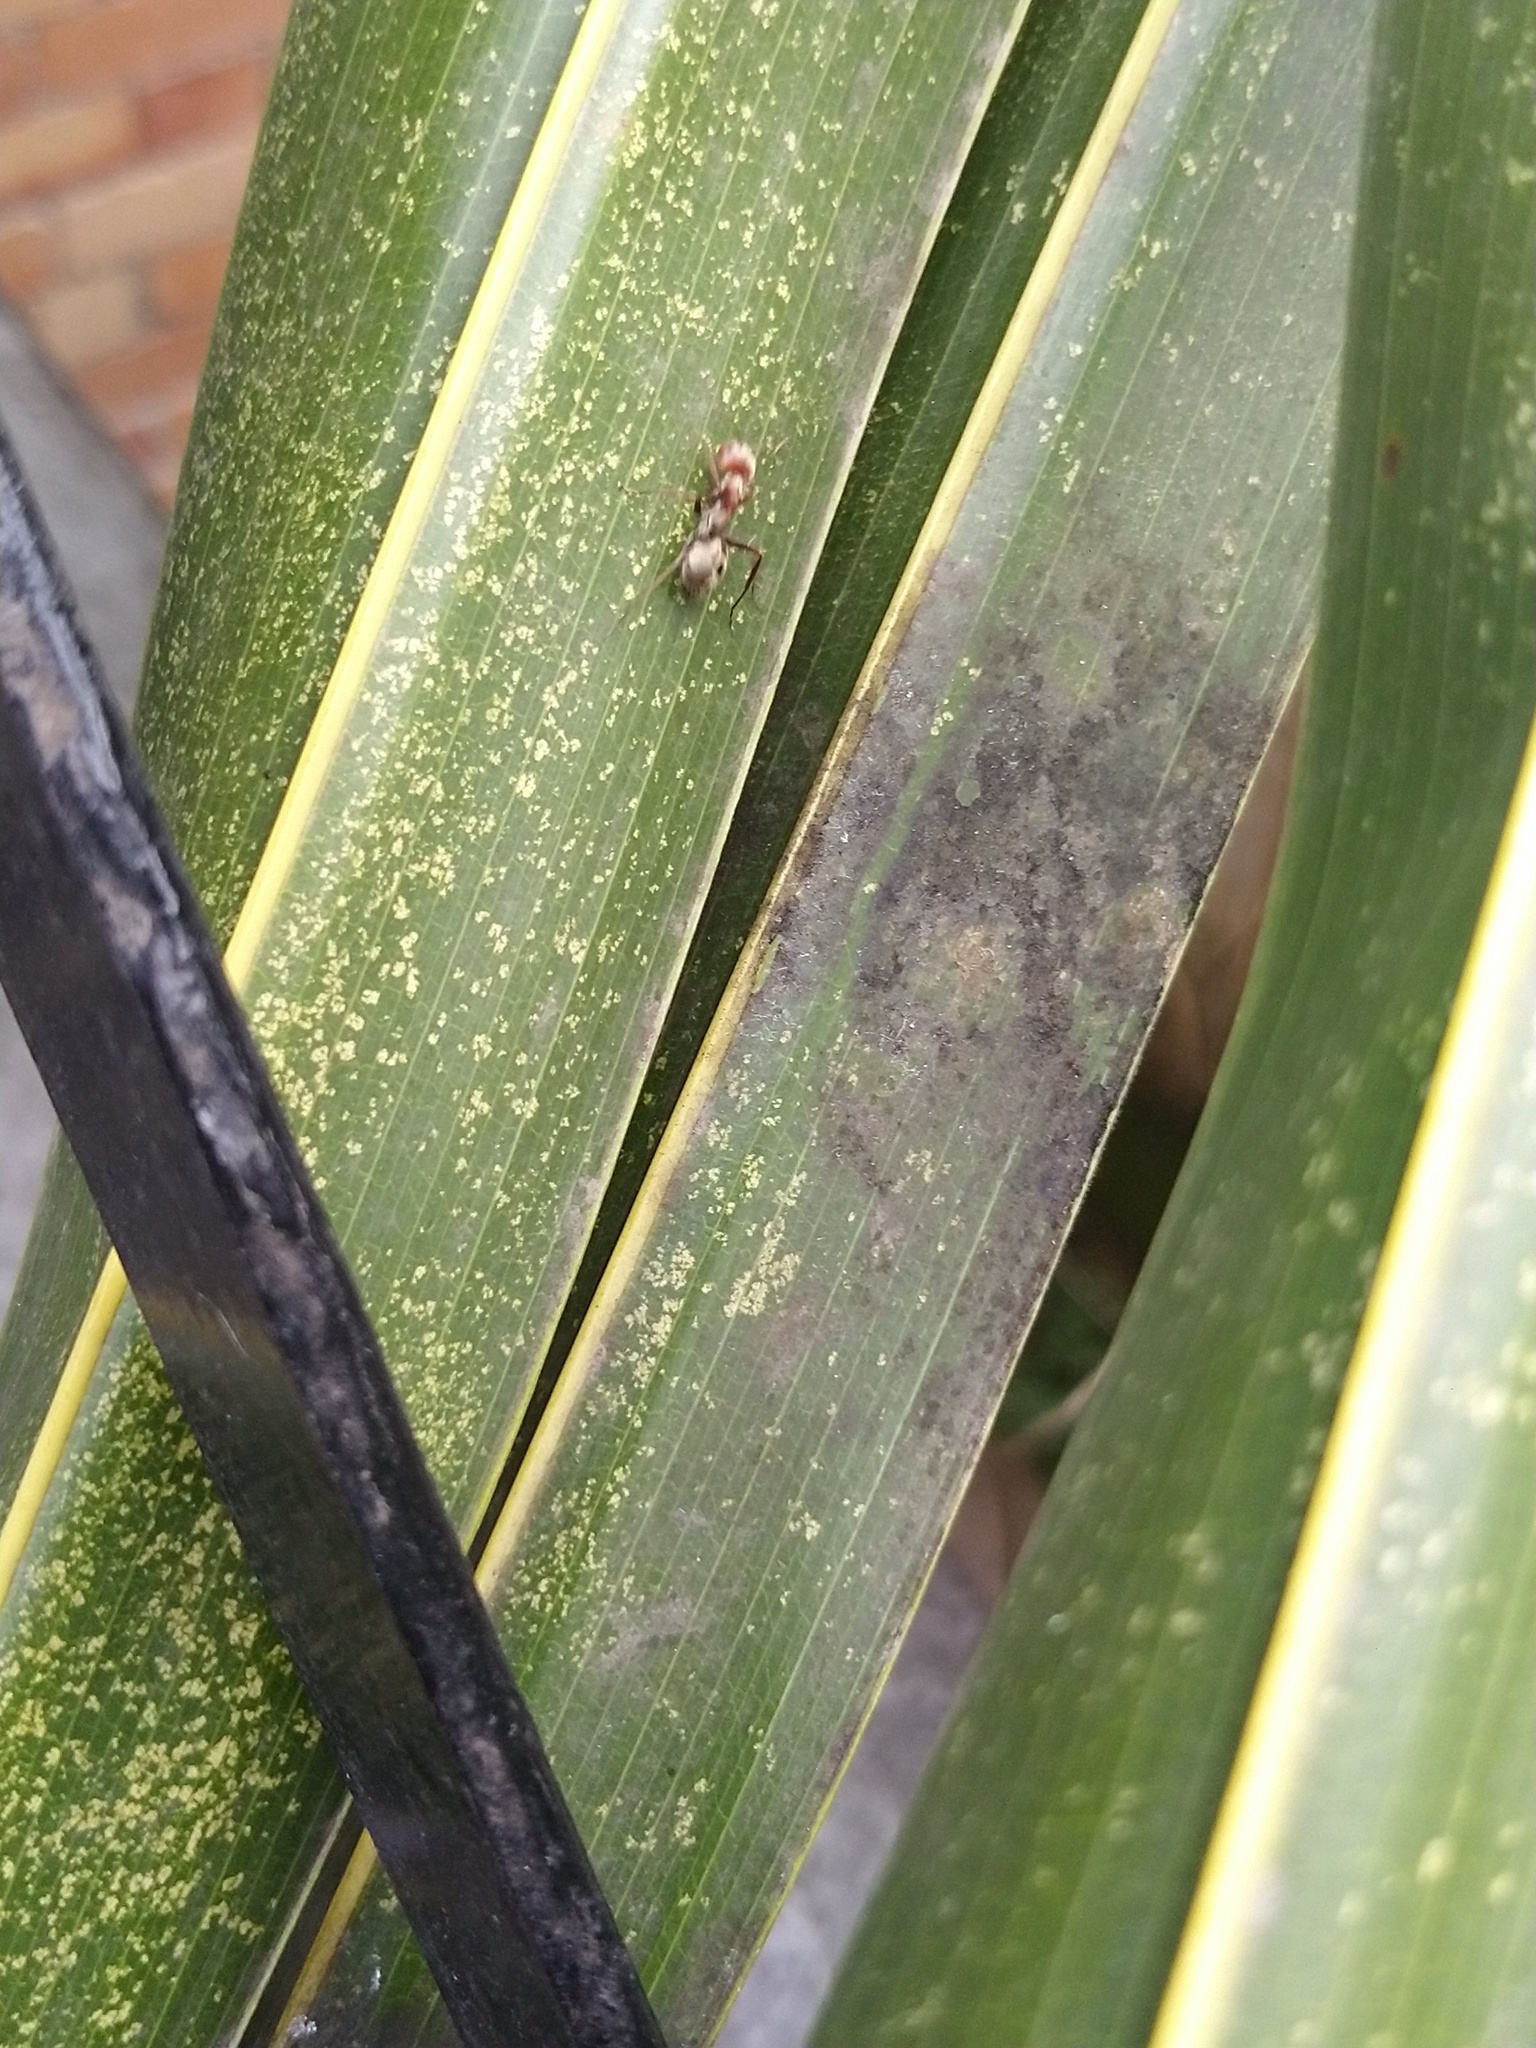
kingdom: Animalia
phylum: Arthropoda
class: Insecta
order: Hymenoptera
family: Formicidae
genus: Camponotus
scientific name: Camponotus rufoglaucus
